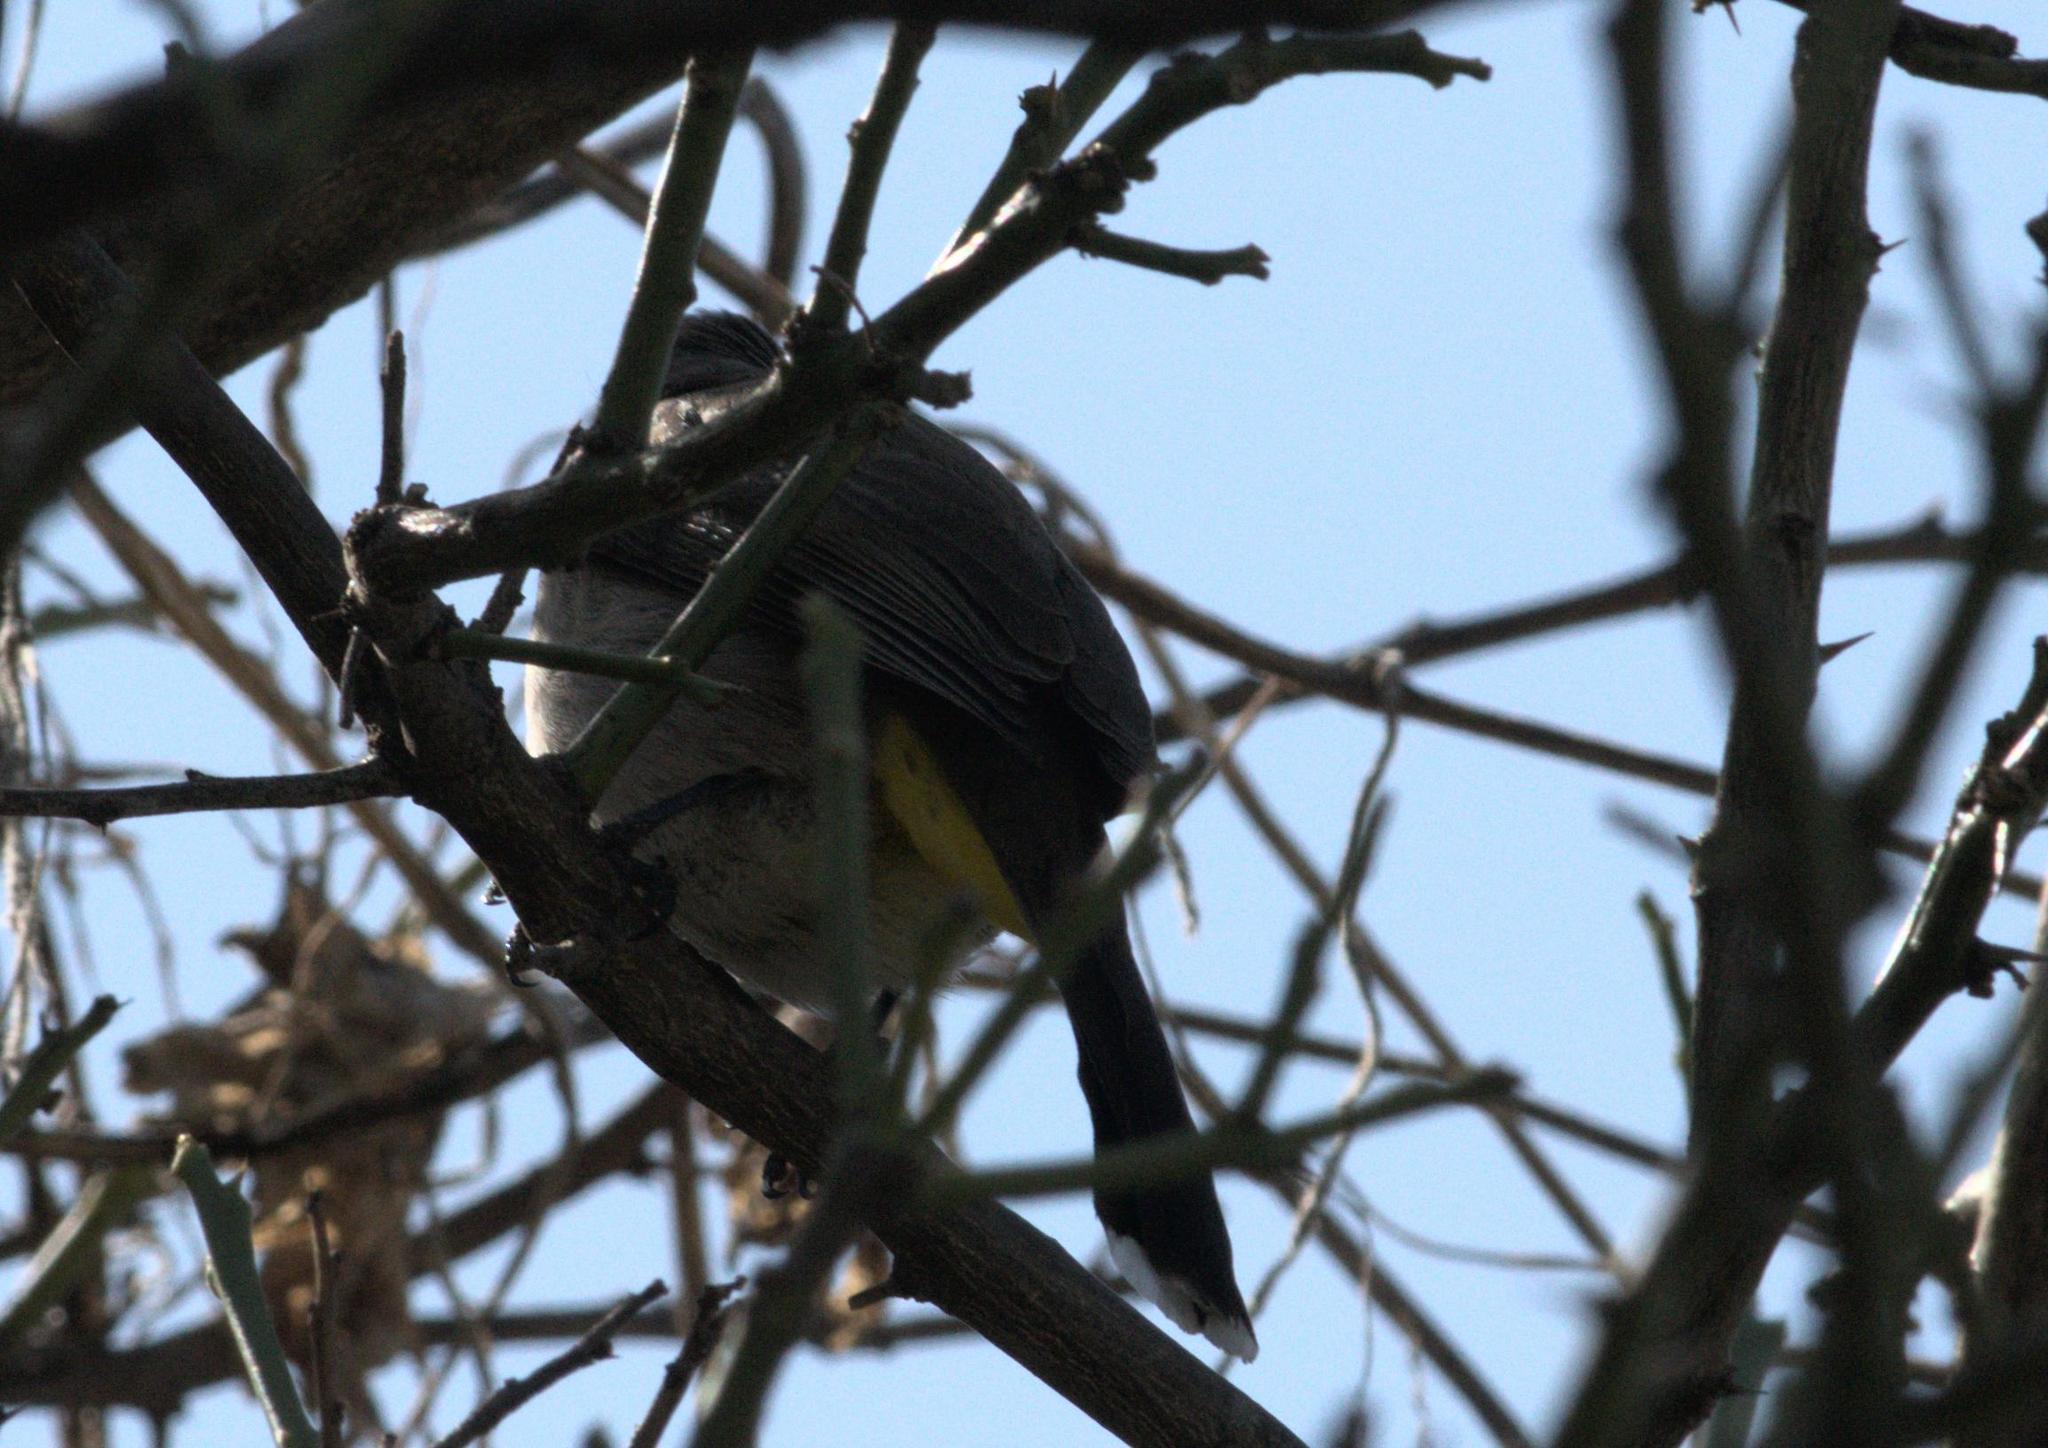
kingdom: Animalia
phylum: Chordata
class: Aves
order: Passeriformes
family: Pycnonotidae
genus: Pycnonotus
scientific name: Pycnonotus leucogenys
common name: Himalayan bulbul
